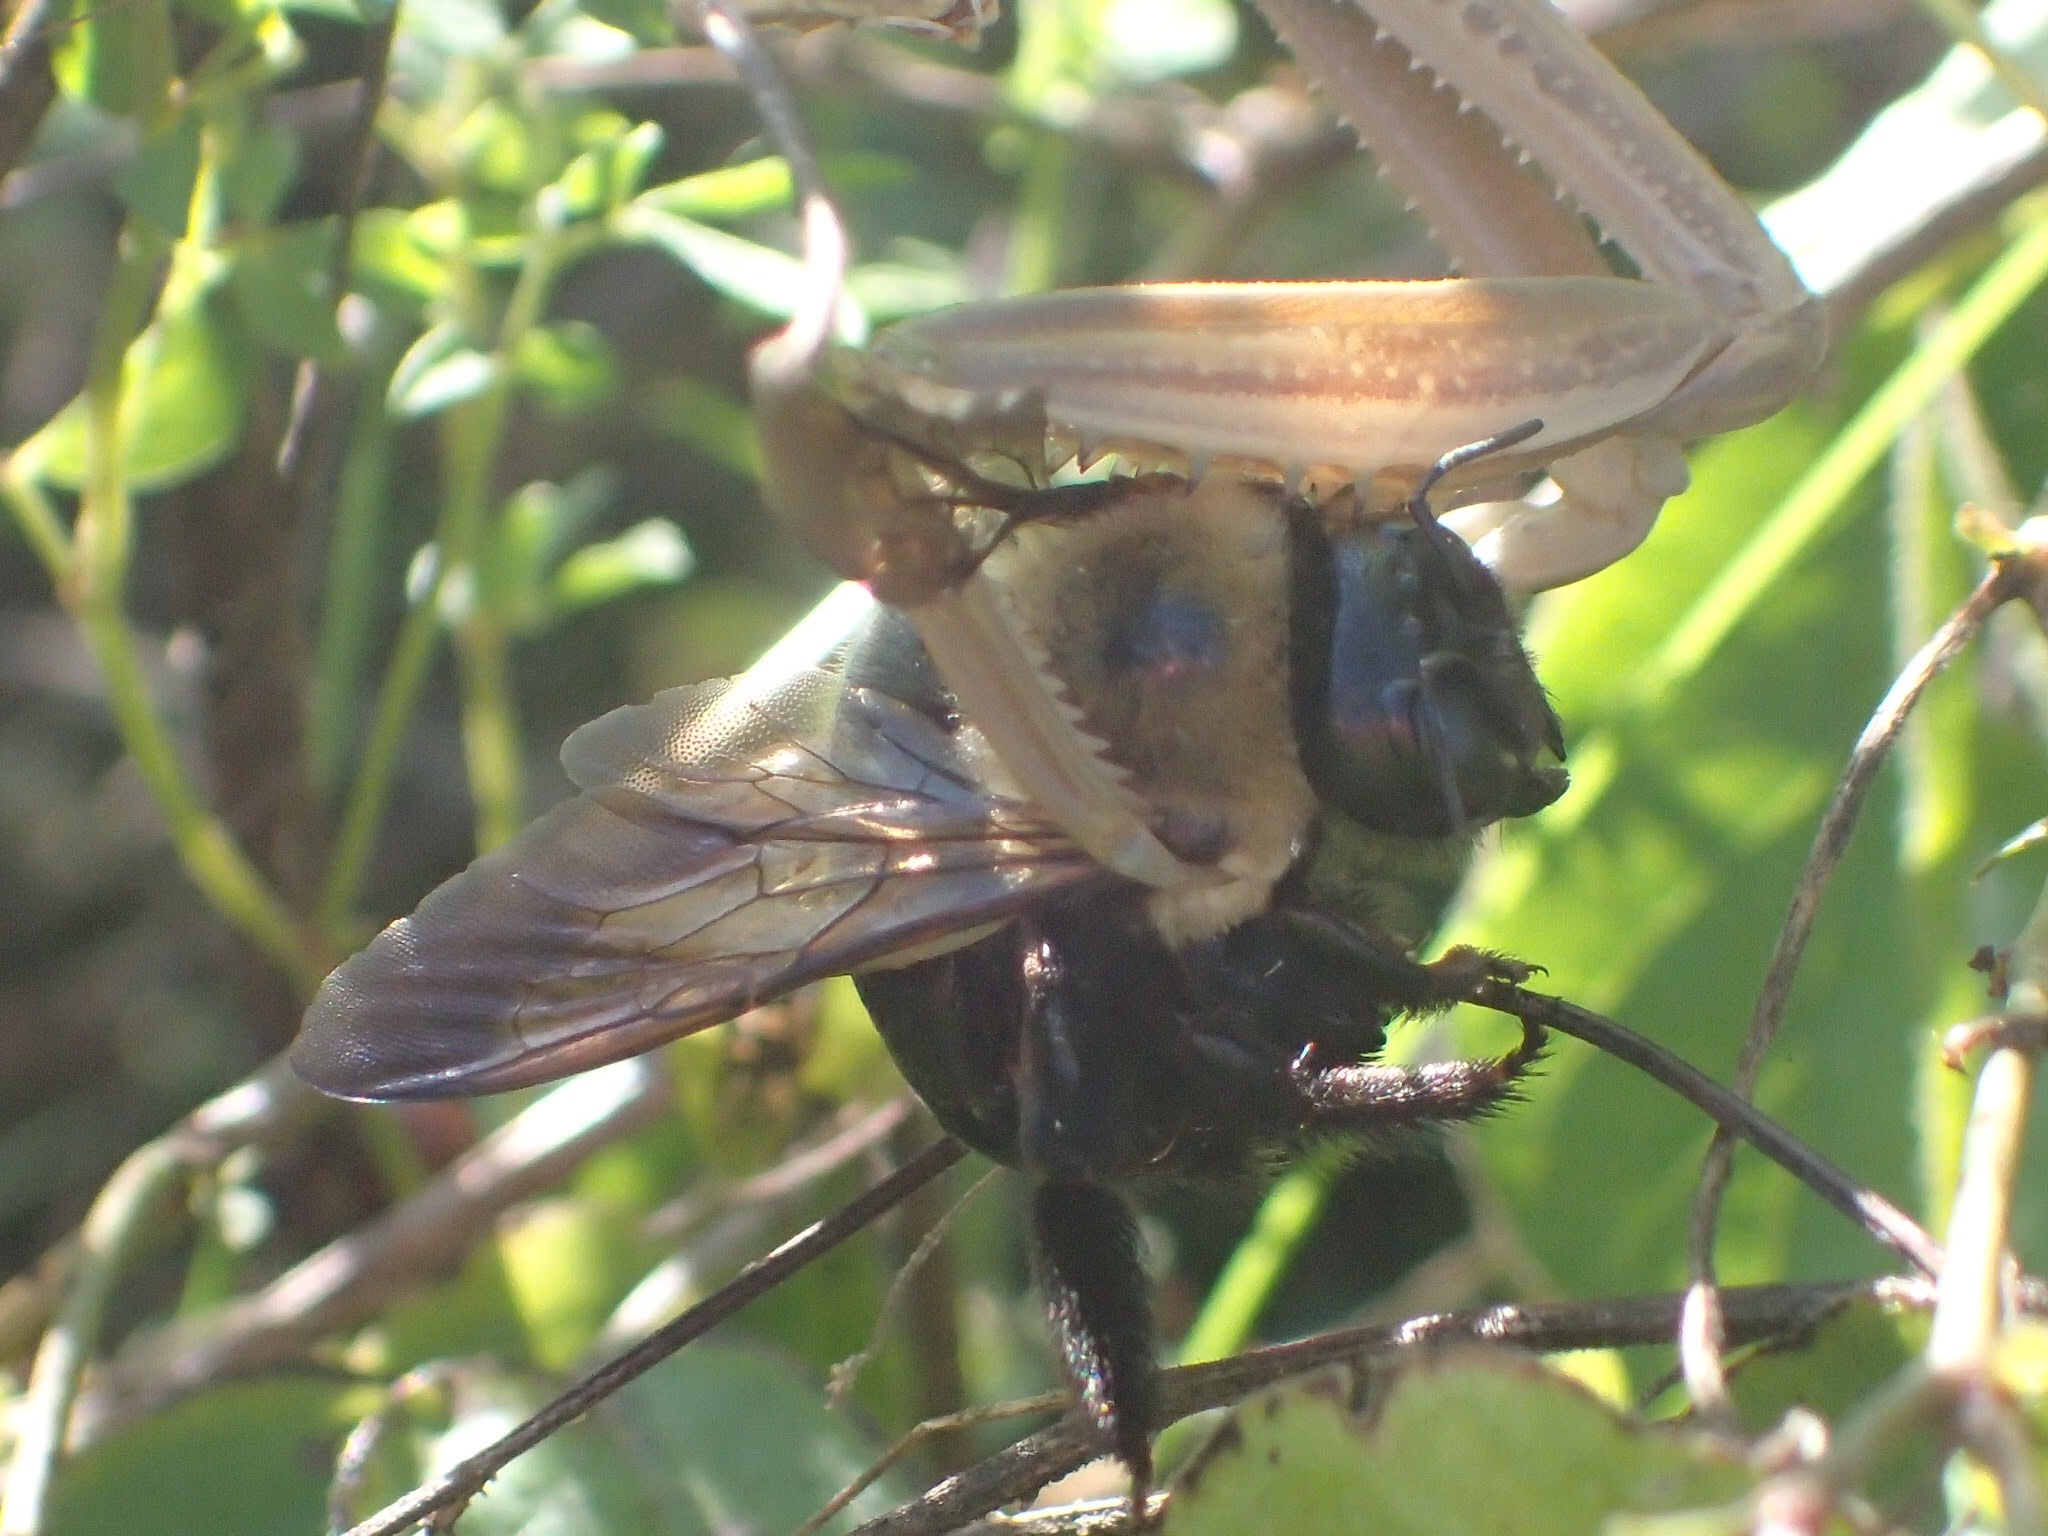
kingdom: Animalia
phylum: Arthropoda
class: Insecta
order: Hymenoptera
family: Apidae
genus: Xylocopa
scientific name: Xylocopa virginica
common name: Carpenter bee
